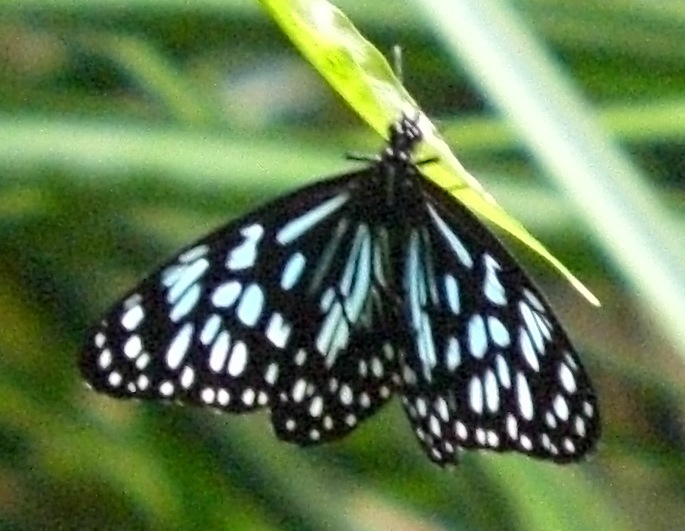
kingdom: Animalia
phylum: Arthropoda
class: Insecta
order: Lepidoptera
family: Nymphalidae
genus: Tirumala
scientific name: Tirumala hamata
